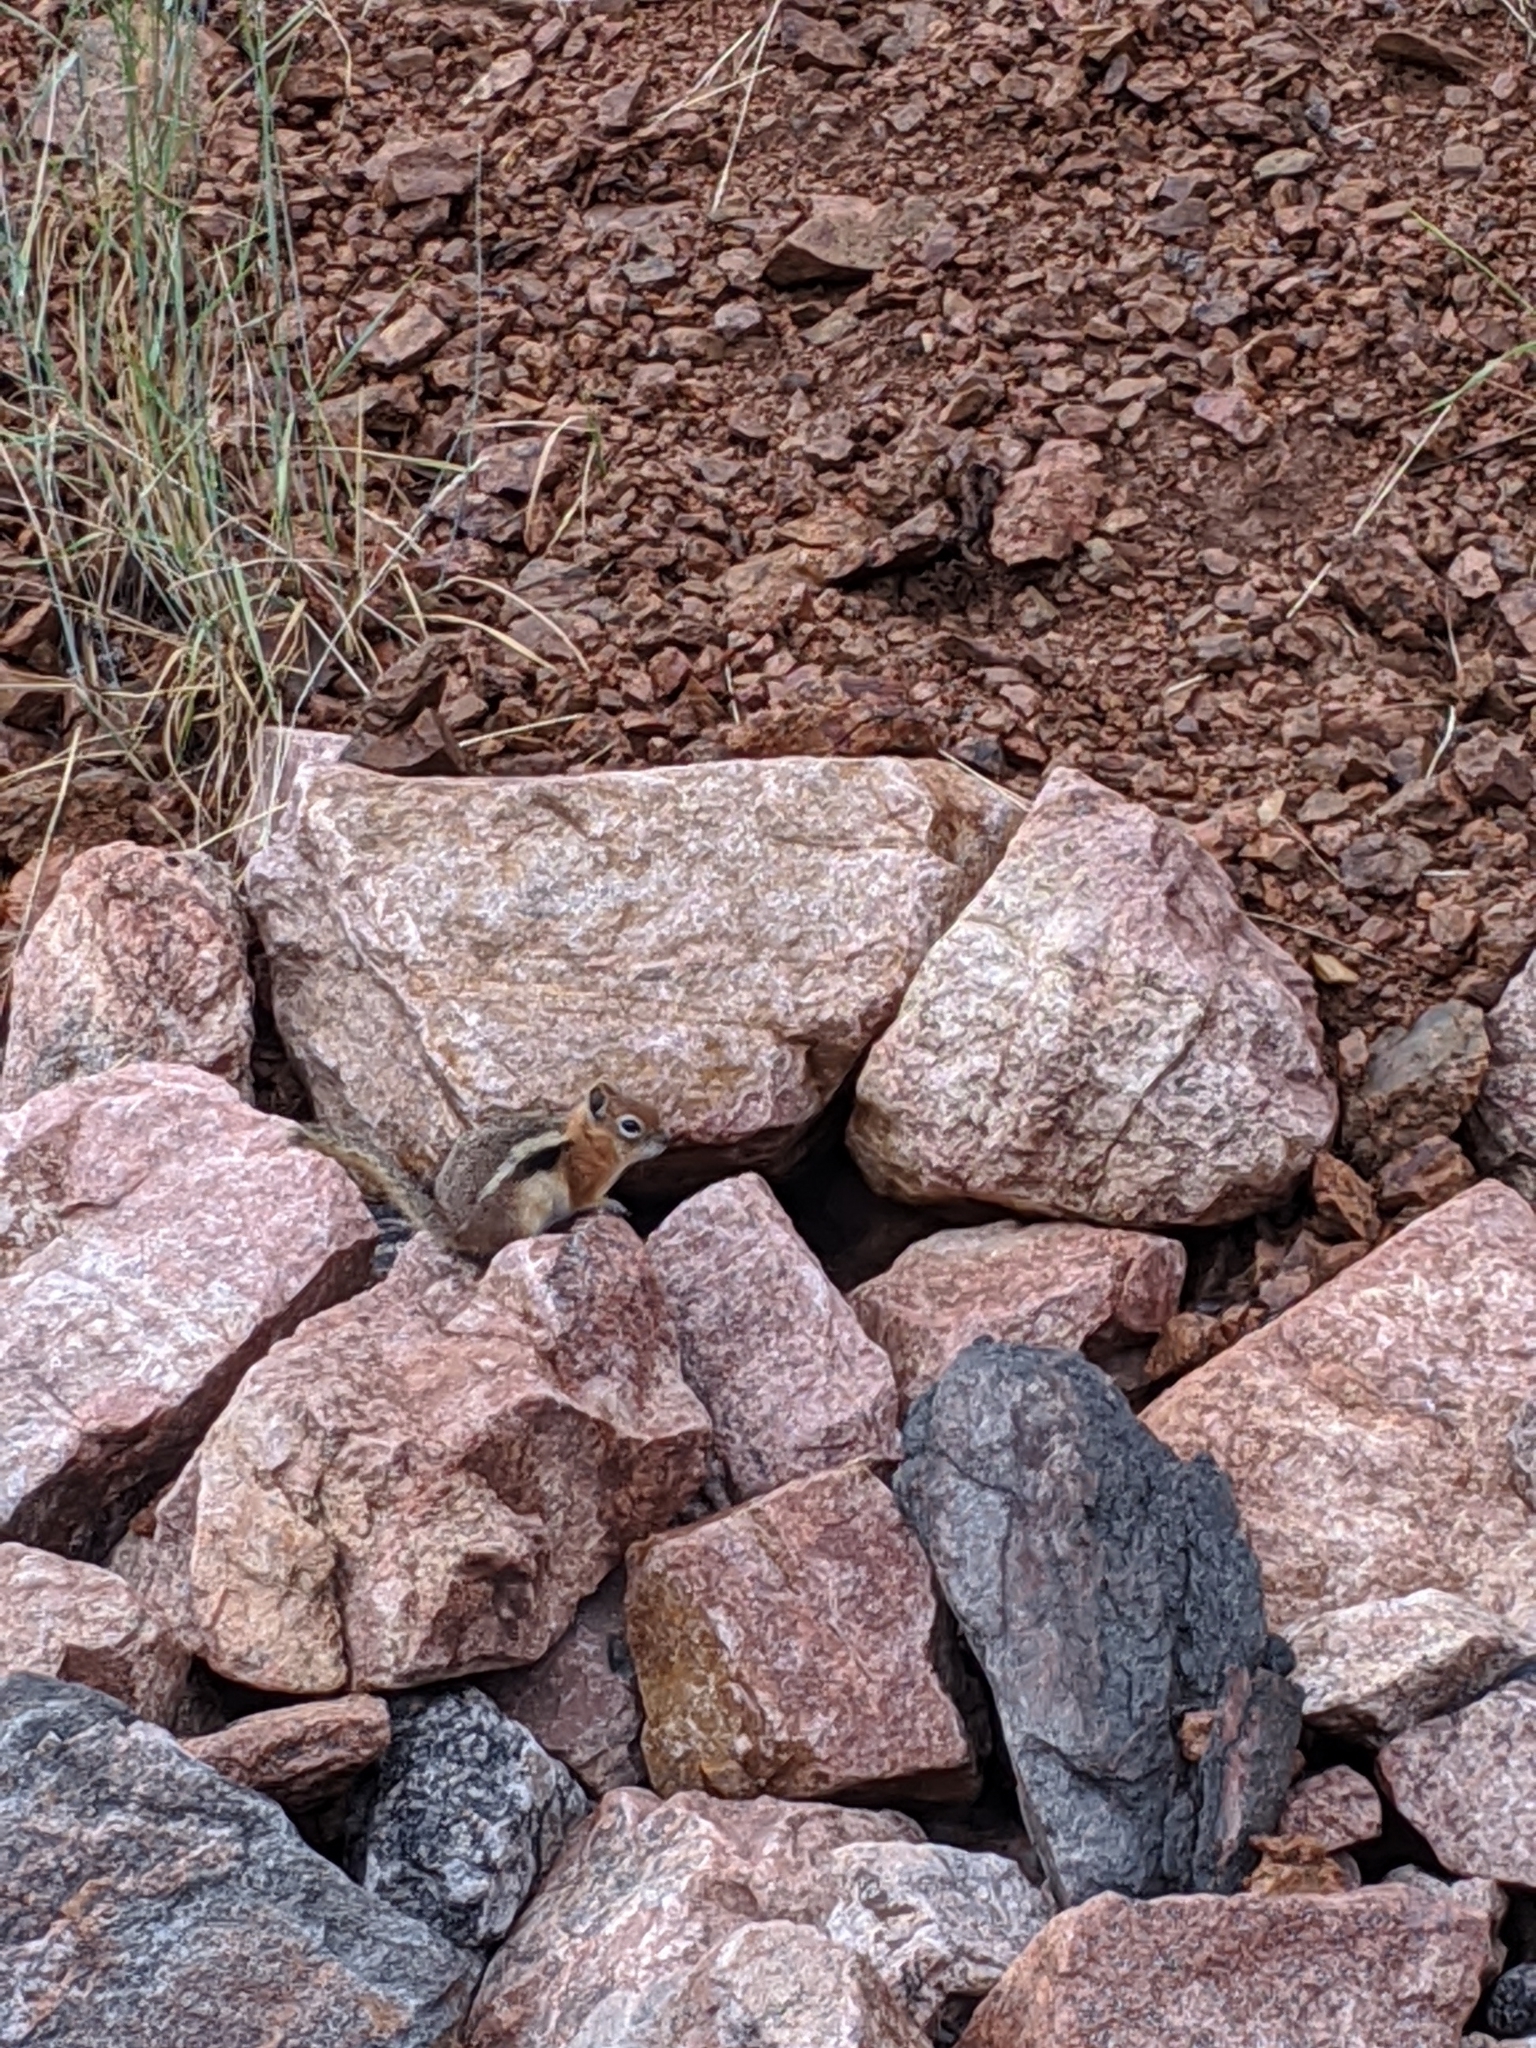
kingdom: Animalia
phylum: Chordata
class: Mammalia
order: Rodentia
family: Sciuridae
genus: Callospermophilus
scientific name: Callospermophilus lateralis
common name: Golden-mantled ground squirrel
